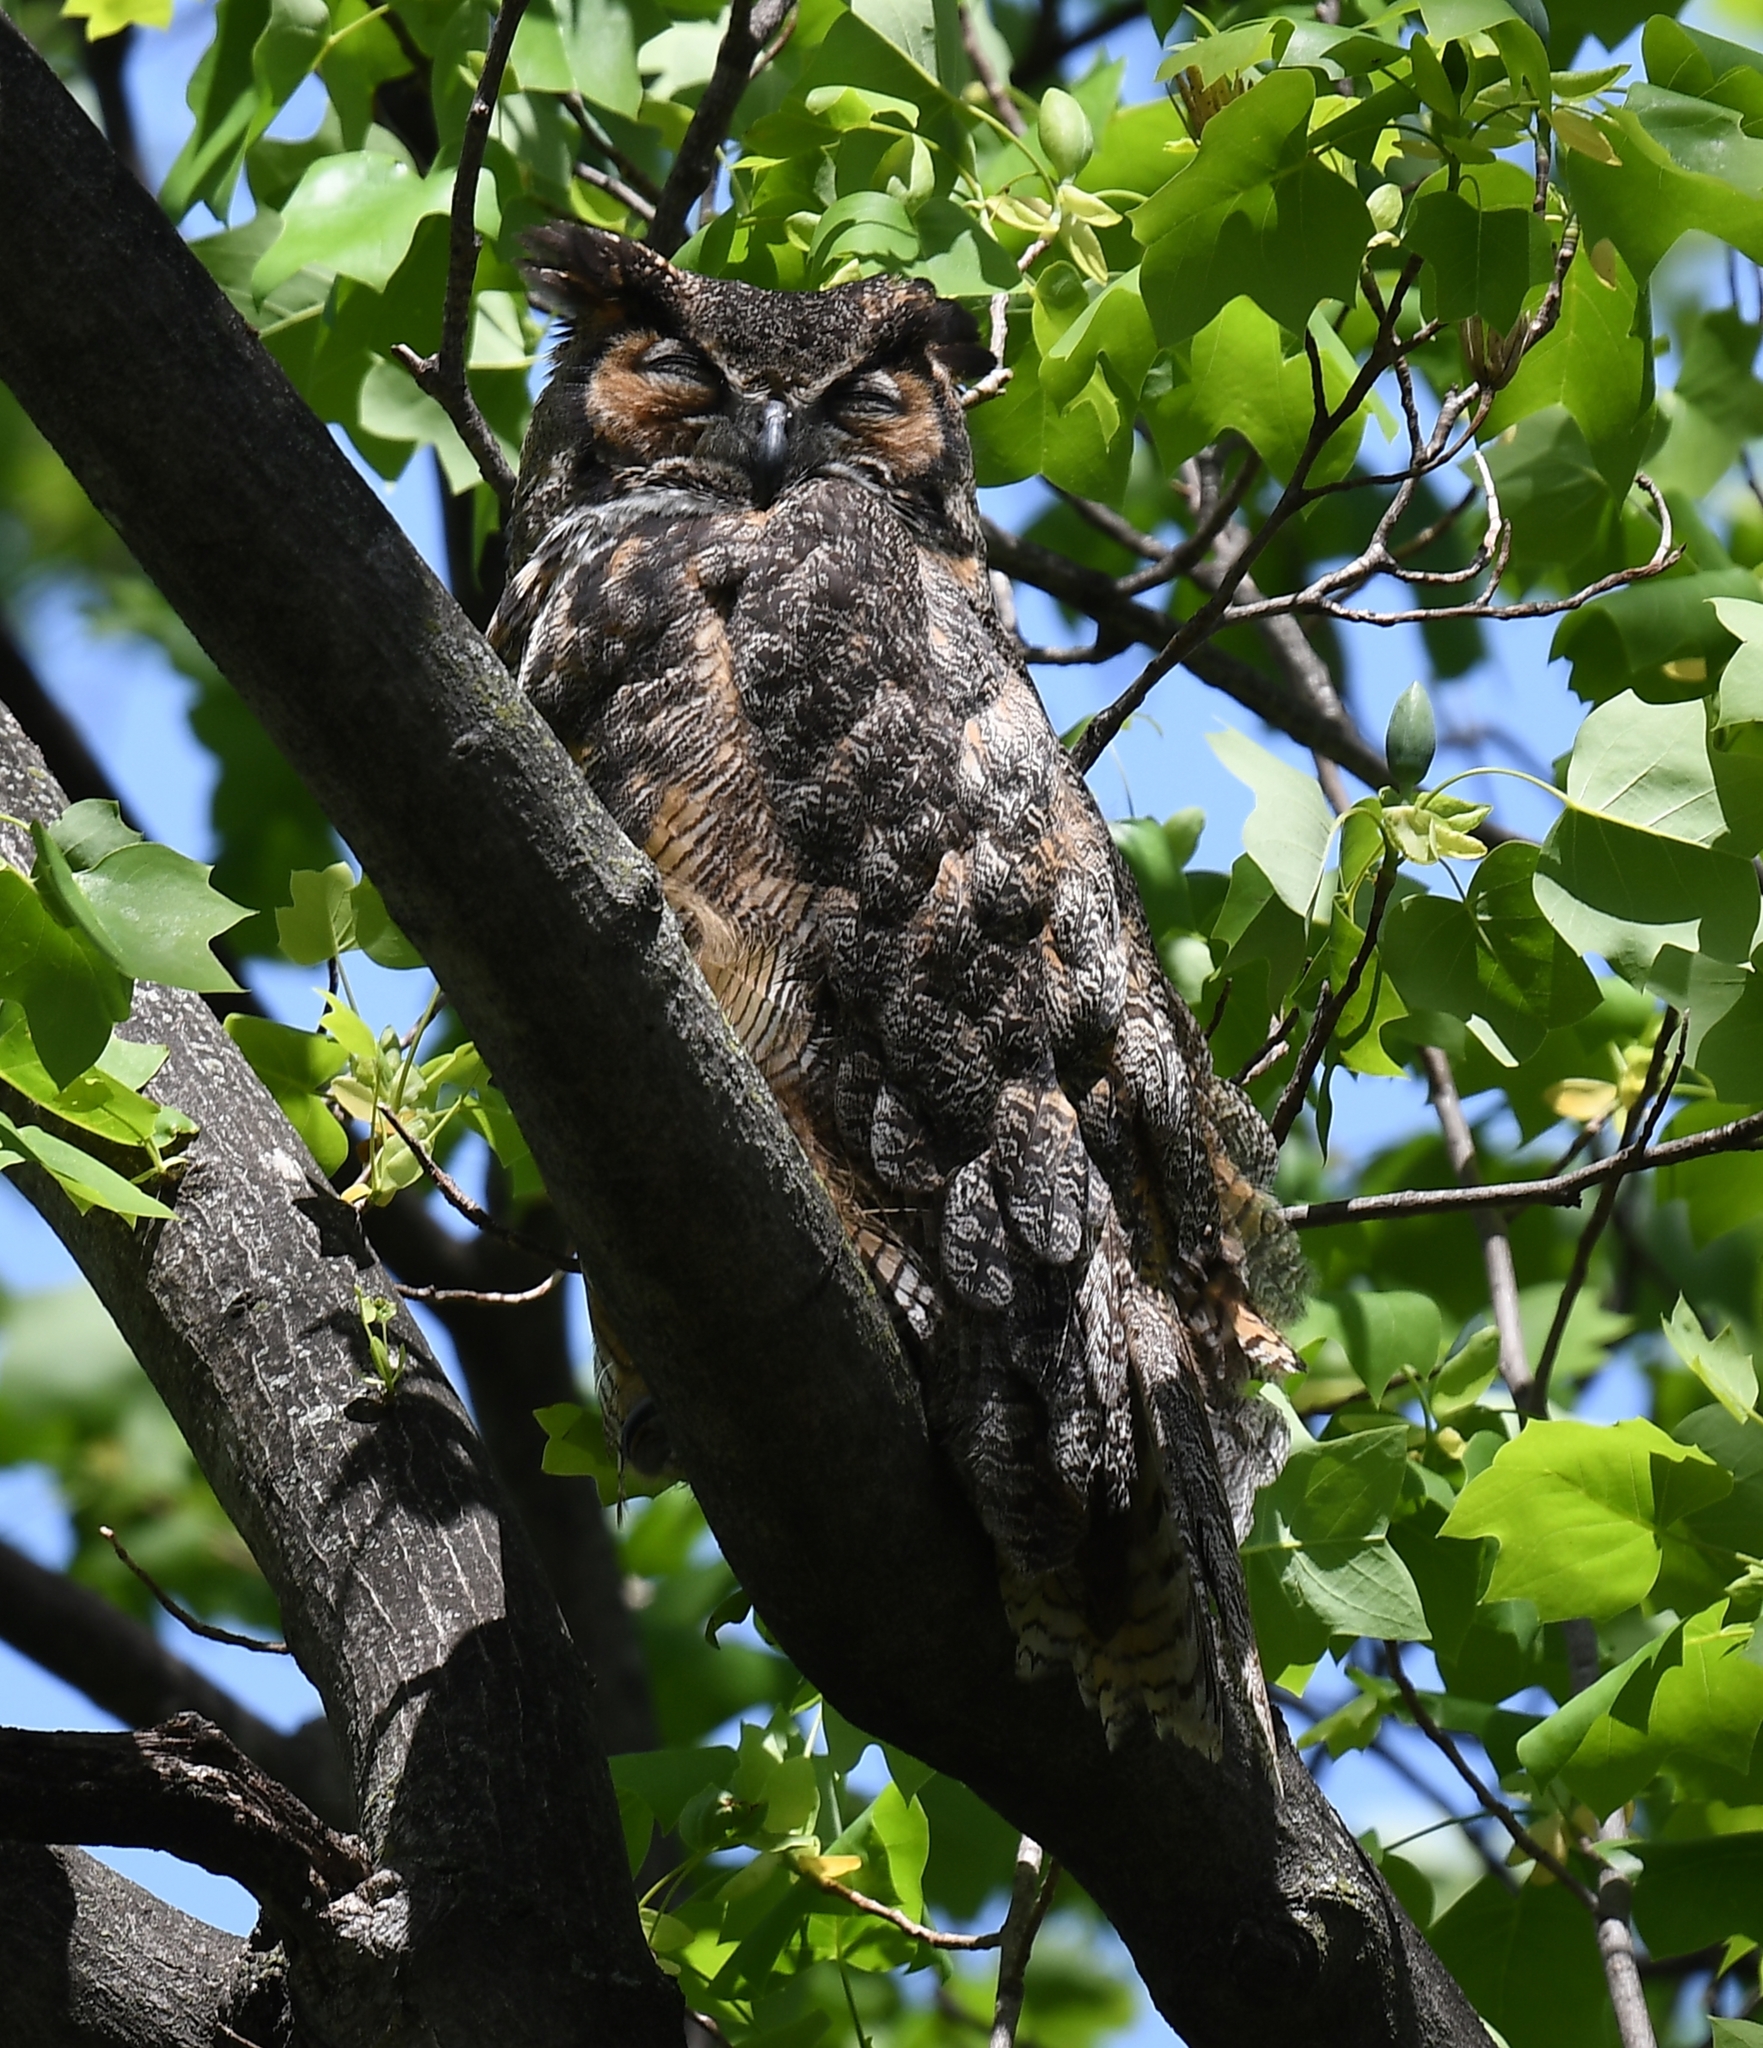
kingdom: Animalia
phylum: Chordata
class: Aves
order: Strigiformes
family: Strigidae
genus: Bubo
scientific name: Bubo virginianus
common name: Great horned owl
